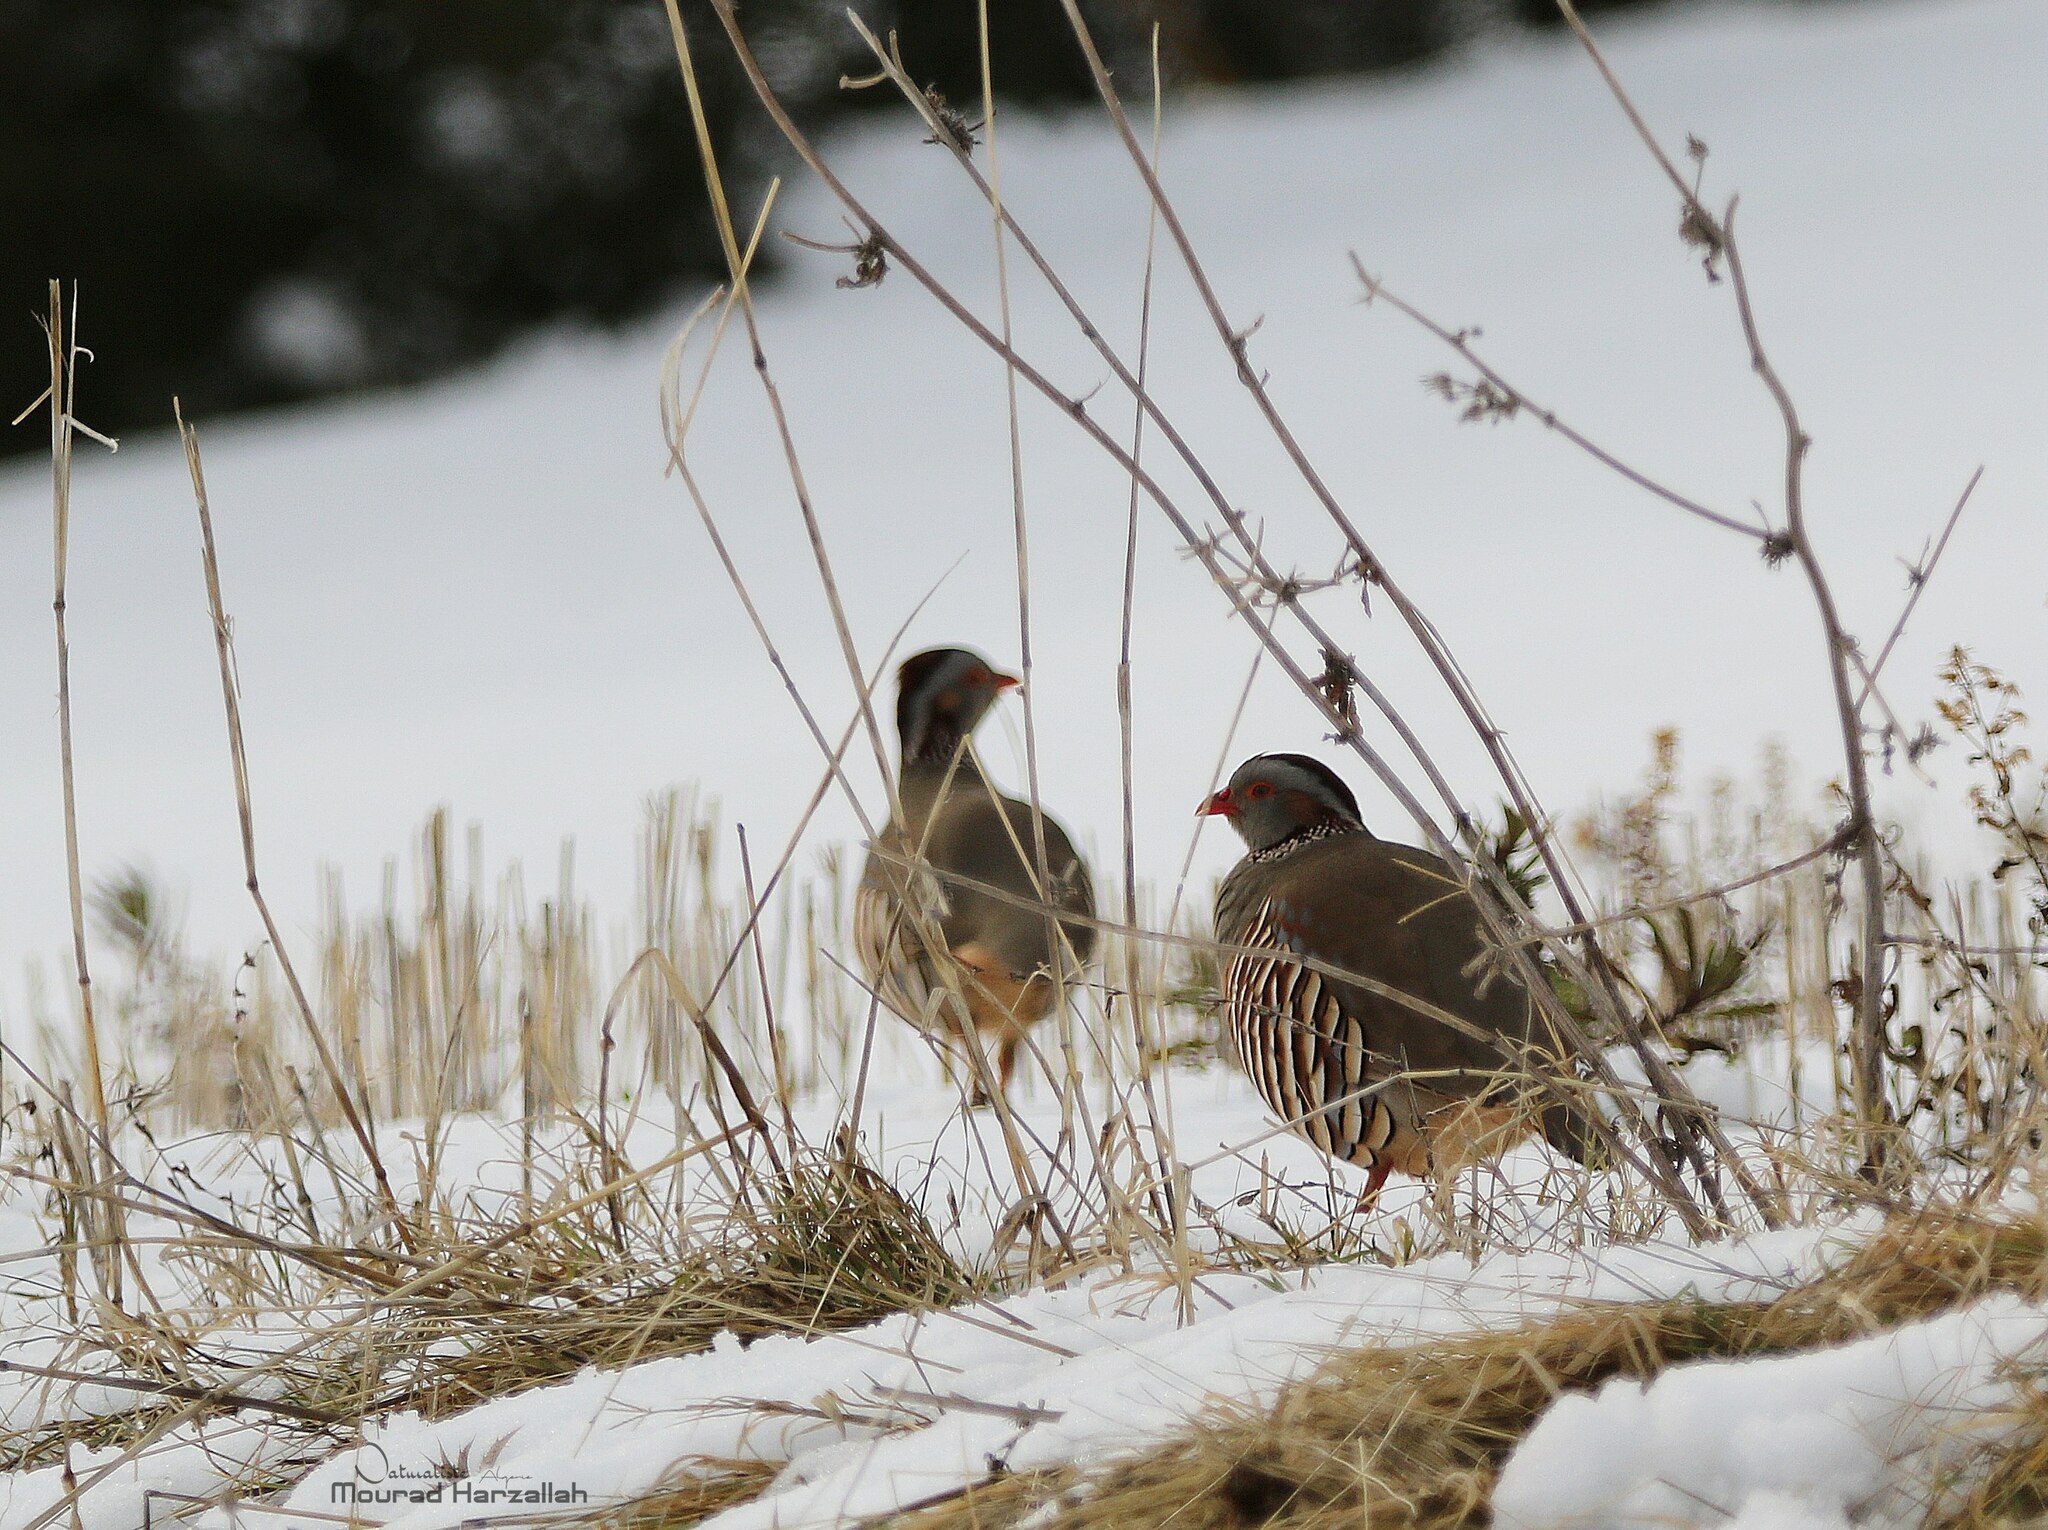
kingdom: Animalia
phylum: Chordata
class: Aves
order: Galliformes
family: Phasianidae
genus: Alectoris
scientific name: Alectoris barbara
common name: Barbary partridge
